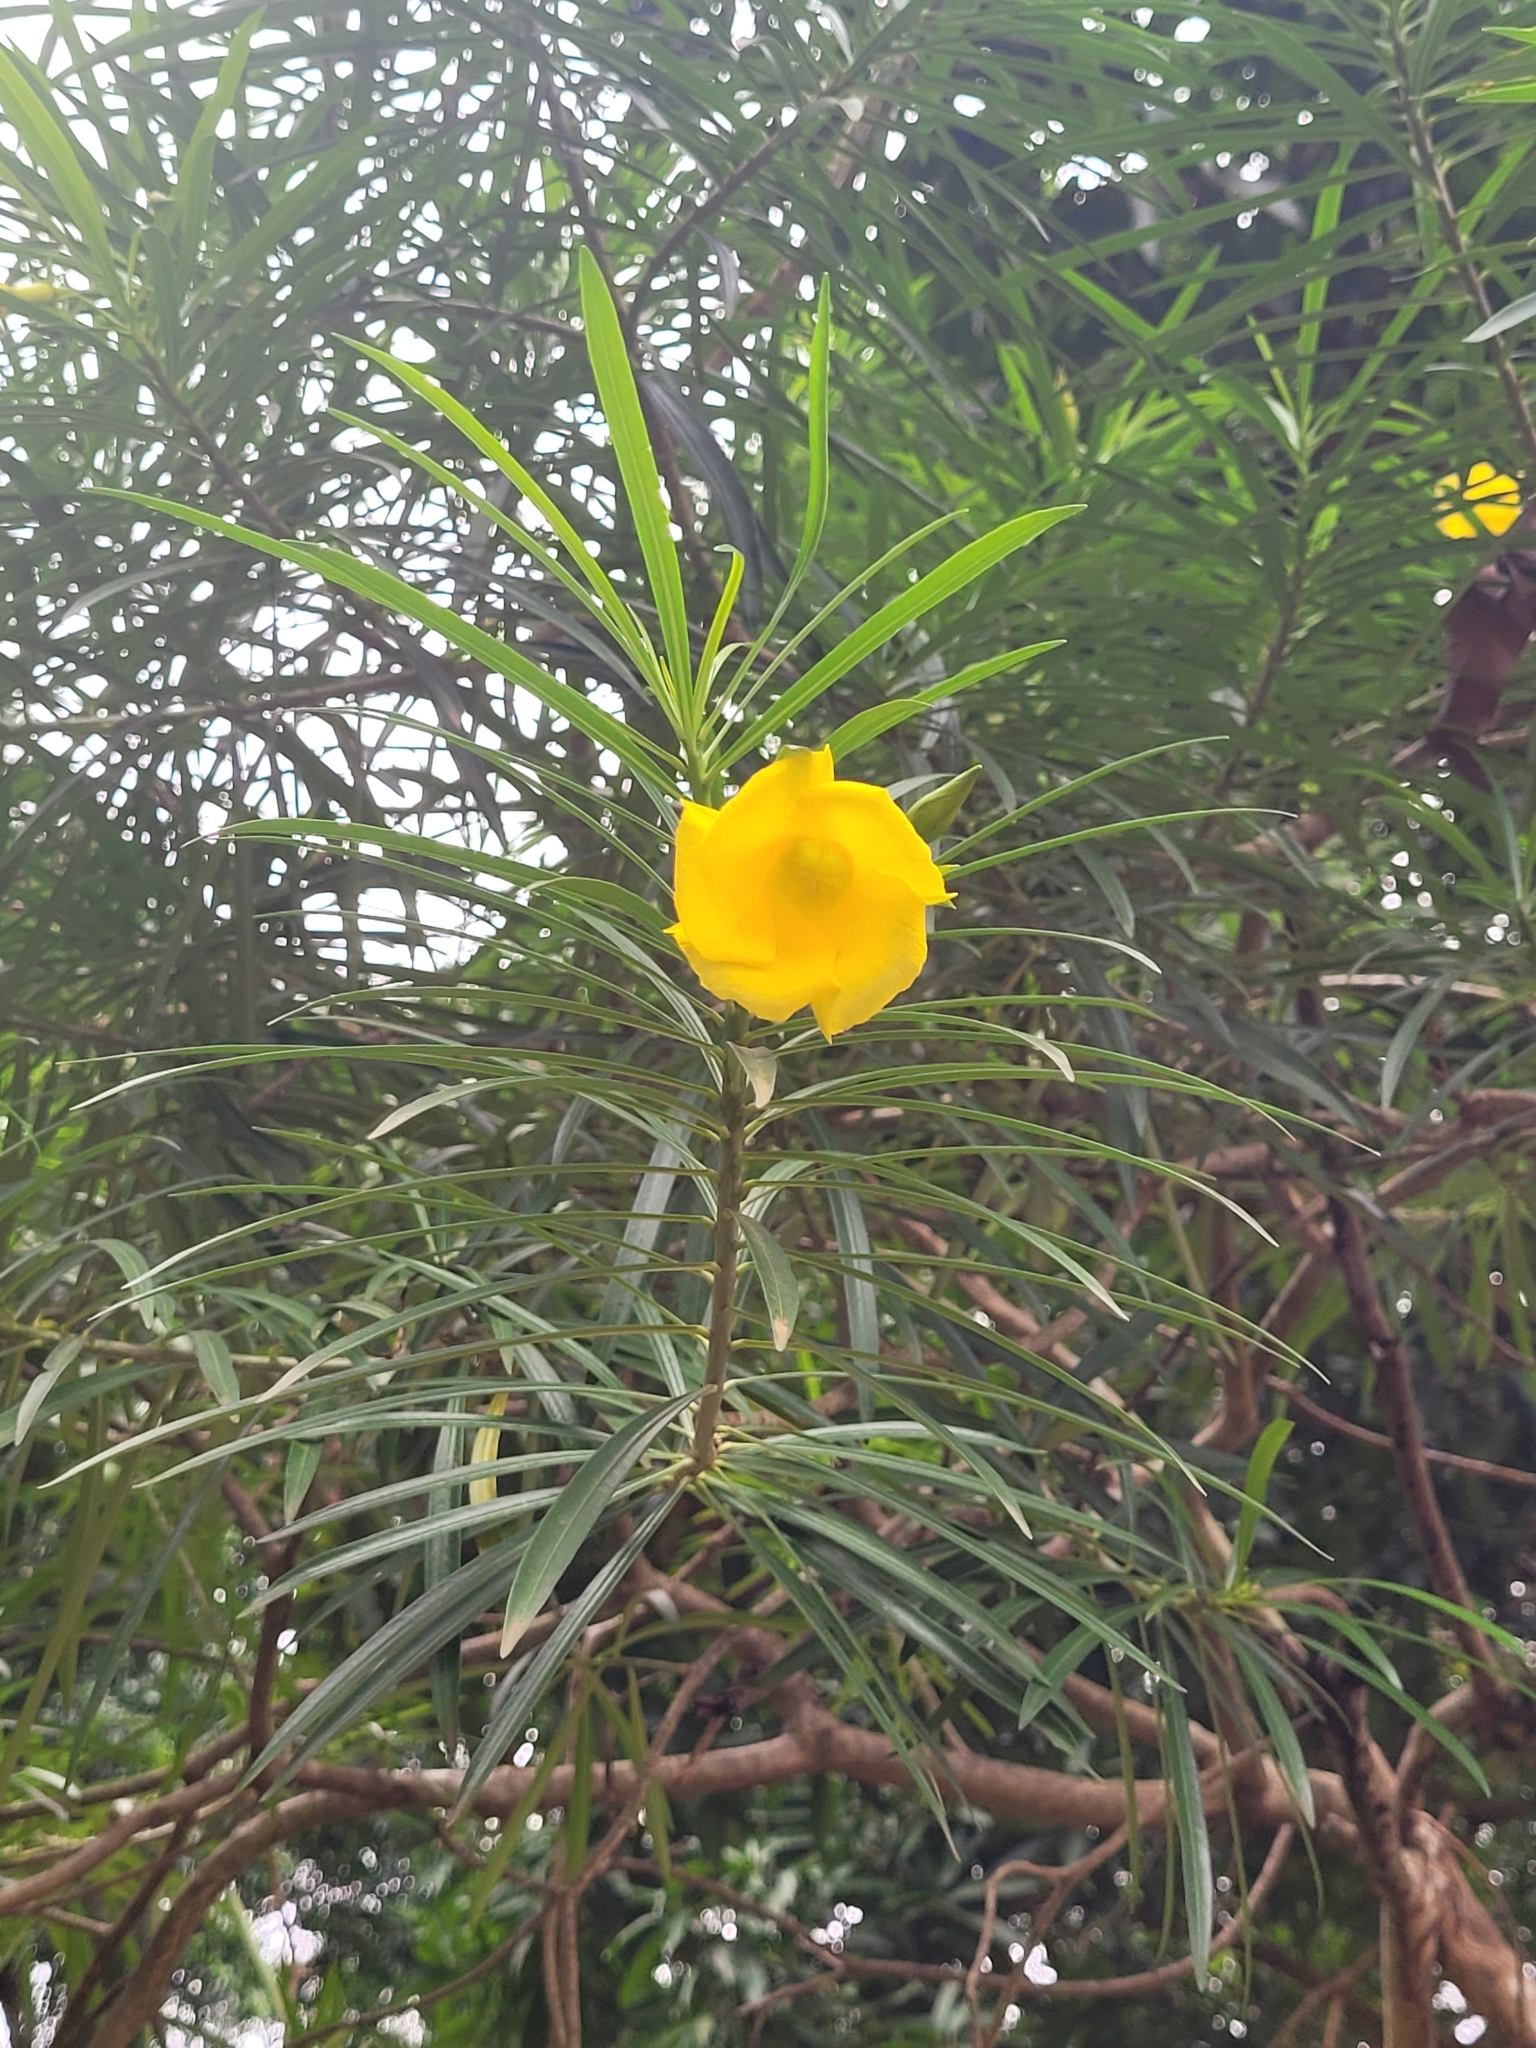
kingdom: Plantae
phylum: Tracheophyta
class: Magnoliopsida
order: Gentianales
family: Apocynaceae
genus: Cascabela
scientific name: Cascabela thevetia
